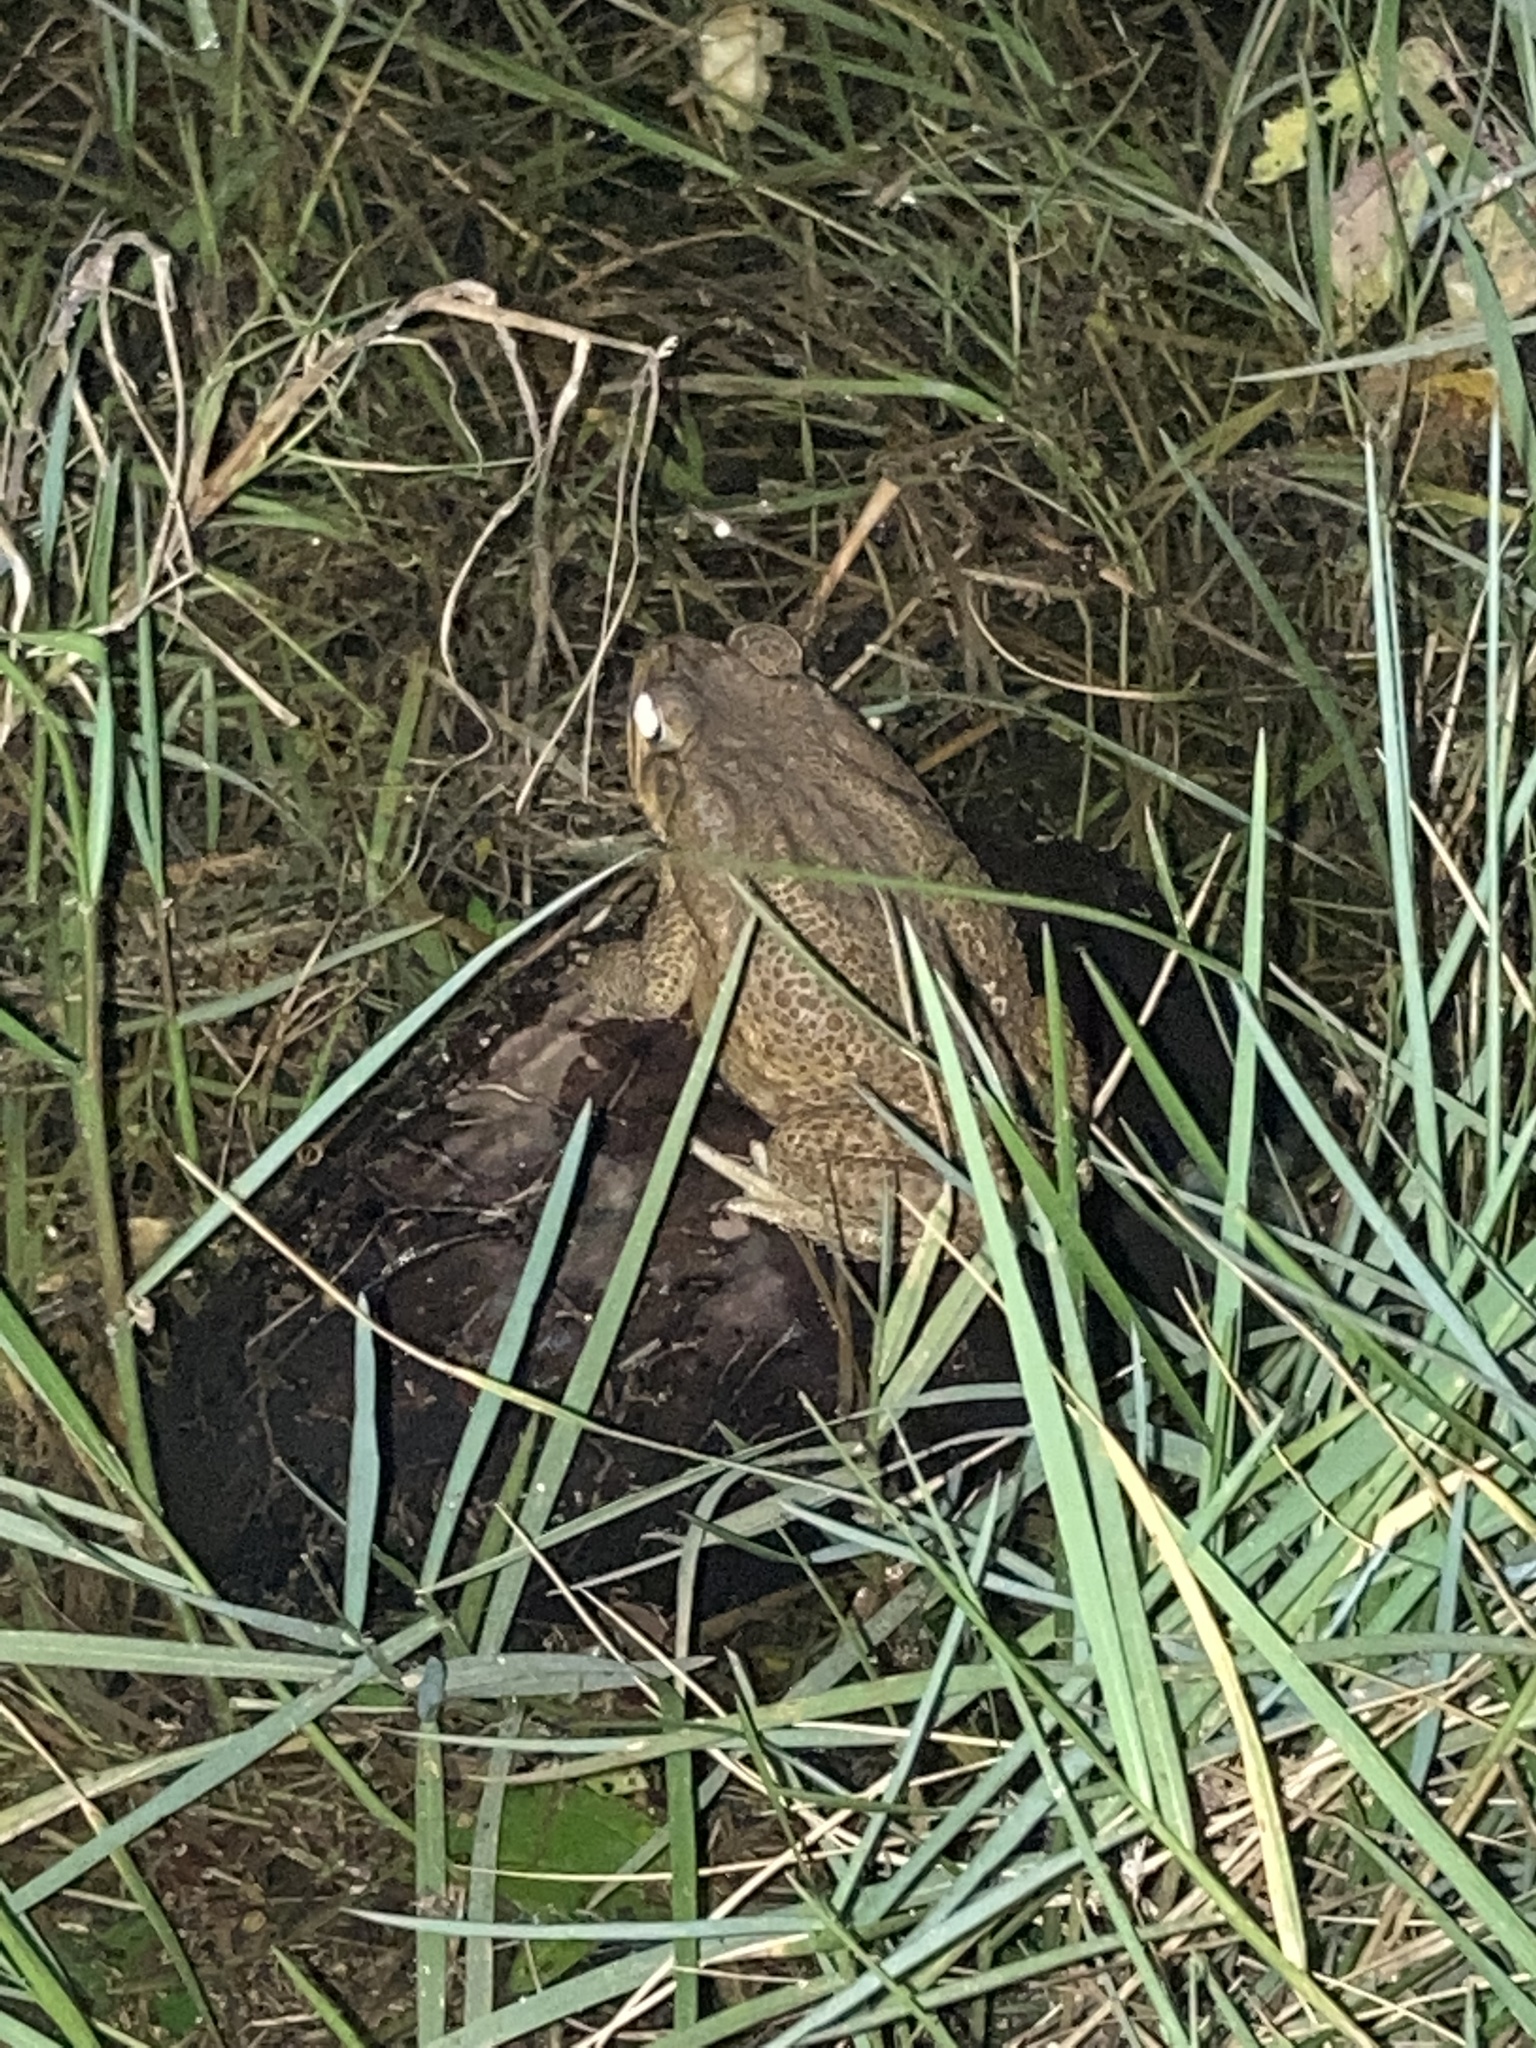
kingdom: Animalia
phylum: Chordata
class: Amphibia
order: Anura
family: Bufonidae
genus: Rhinella
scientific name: Rhinella marina
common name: Cane toad
